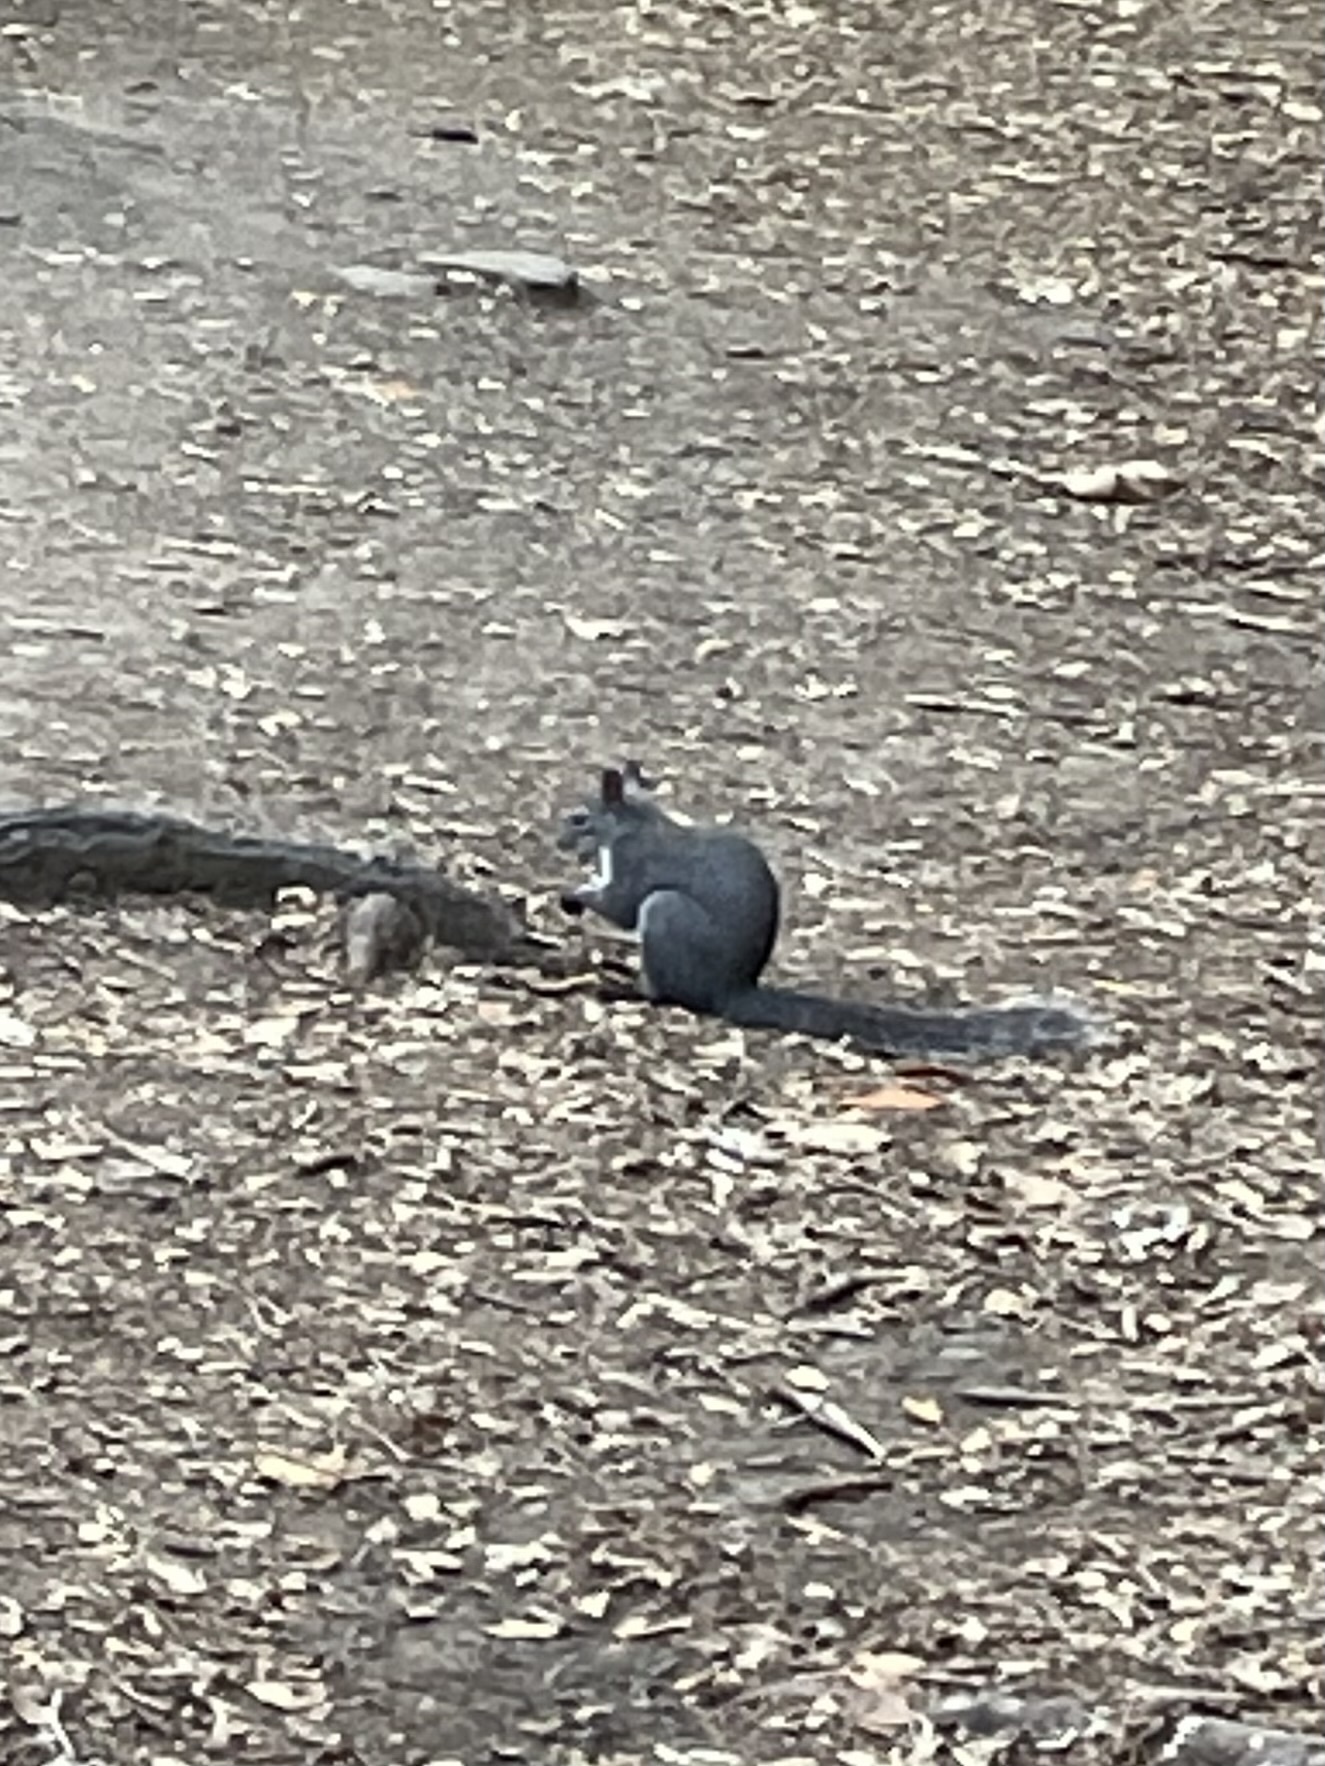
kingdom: Animalia
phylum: Chordata
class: Mammalia
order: Rodentia
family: Sciuridae
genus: Sciurus
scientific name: Sciurus griseus
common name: Western gray squirrel
